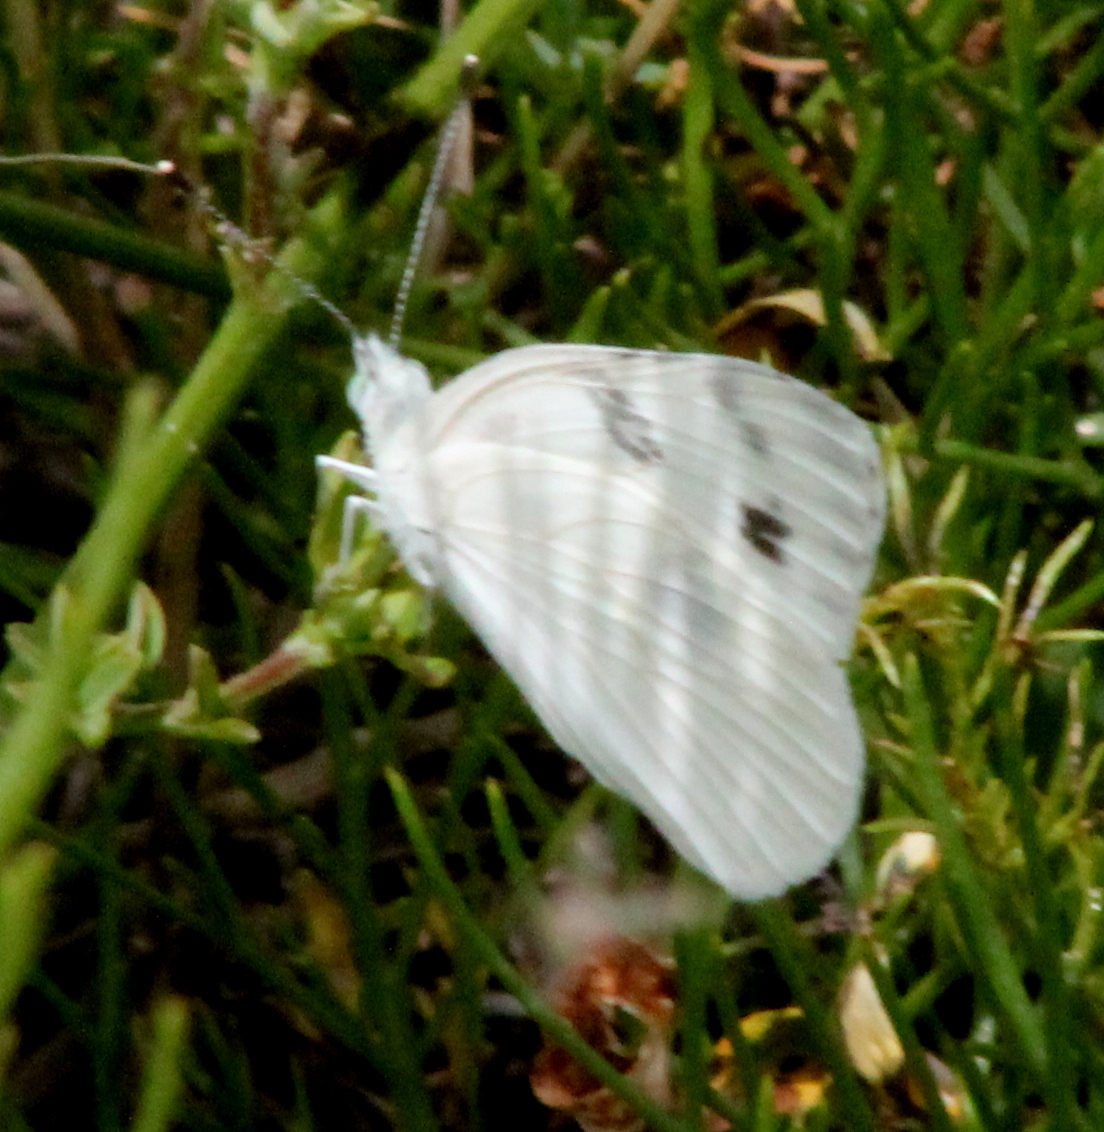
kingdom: Animalia
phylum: Arthropoda
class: Insecta
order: Lepidoptera
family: Pieridae
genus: Pontia
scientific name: Pontia protodice
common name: Checkered white
